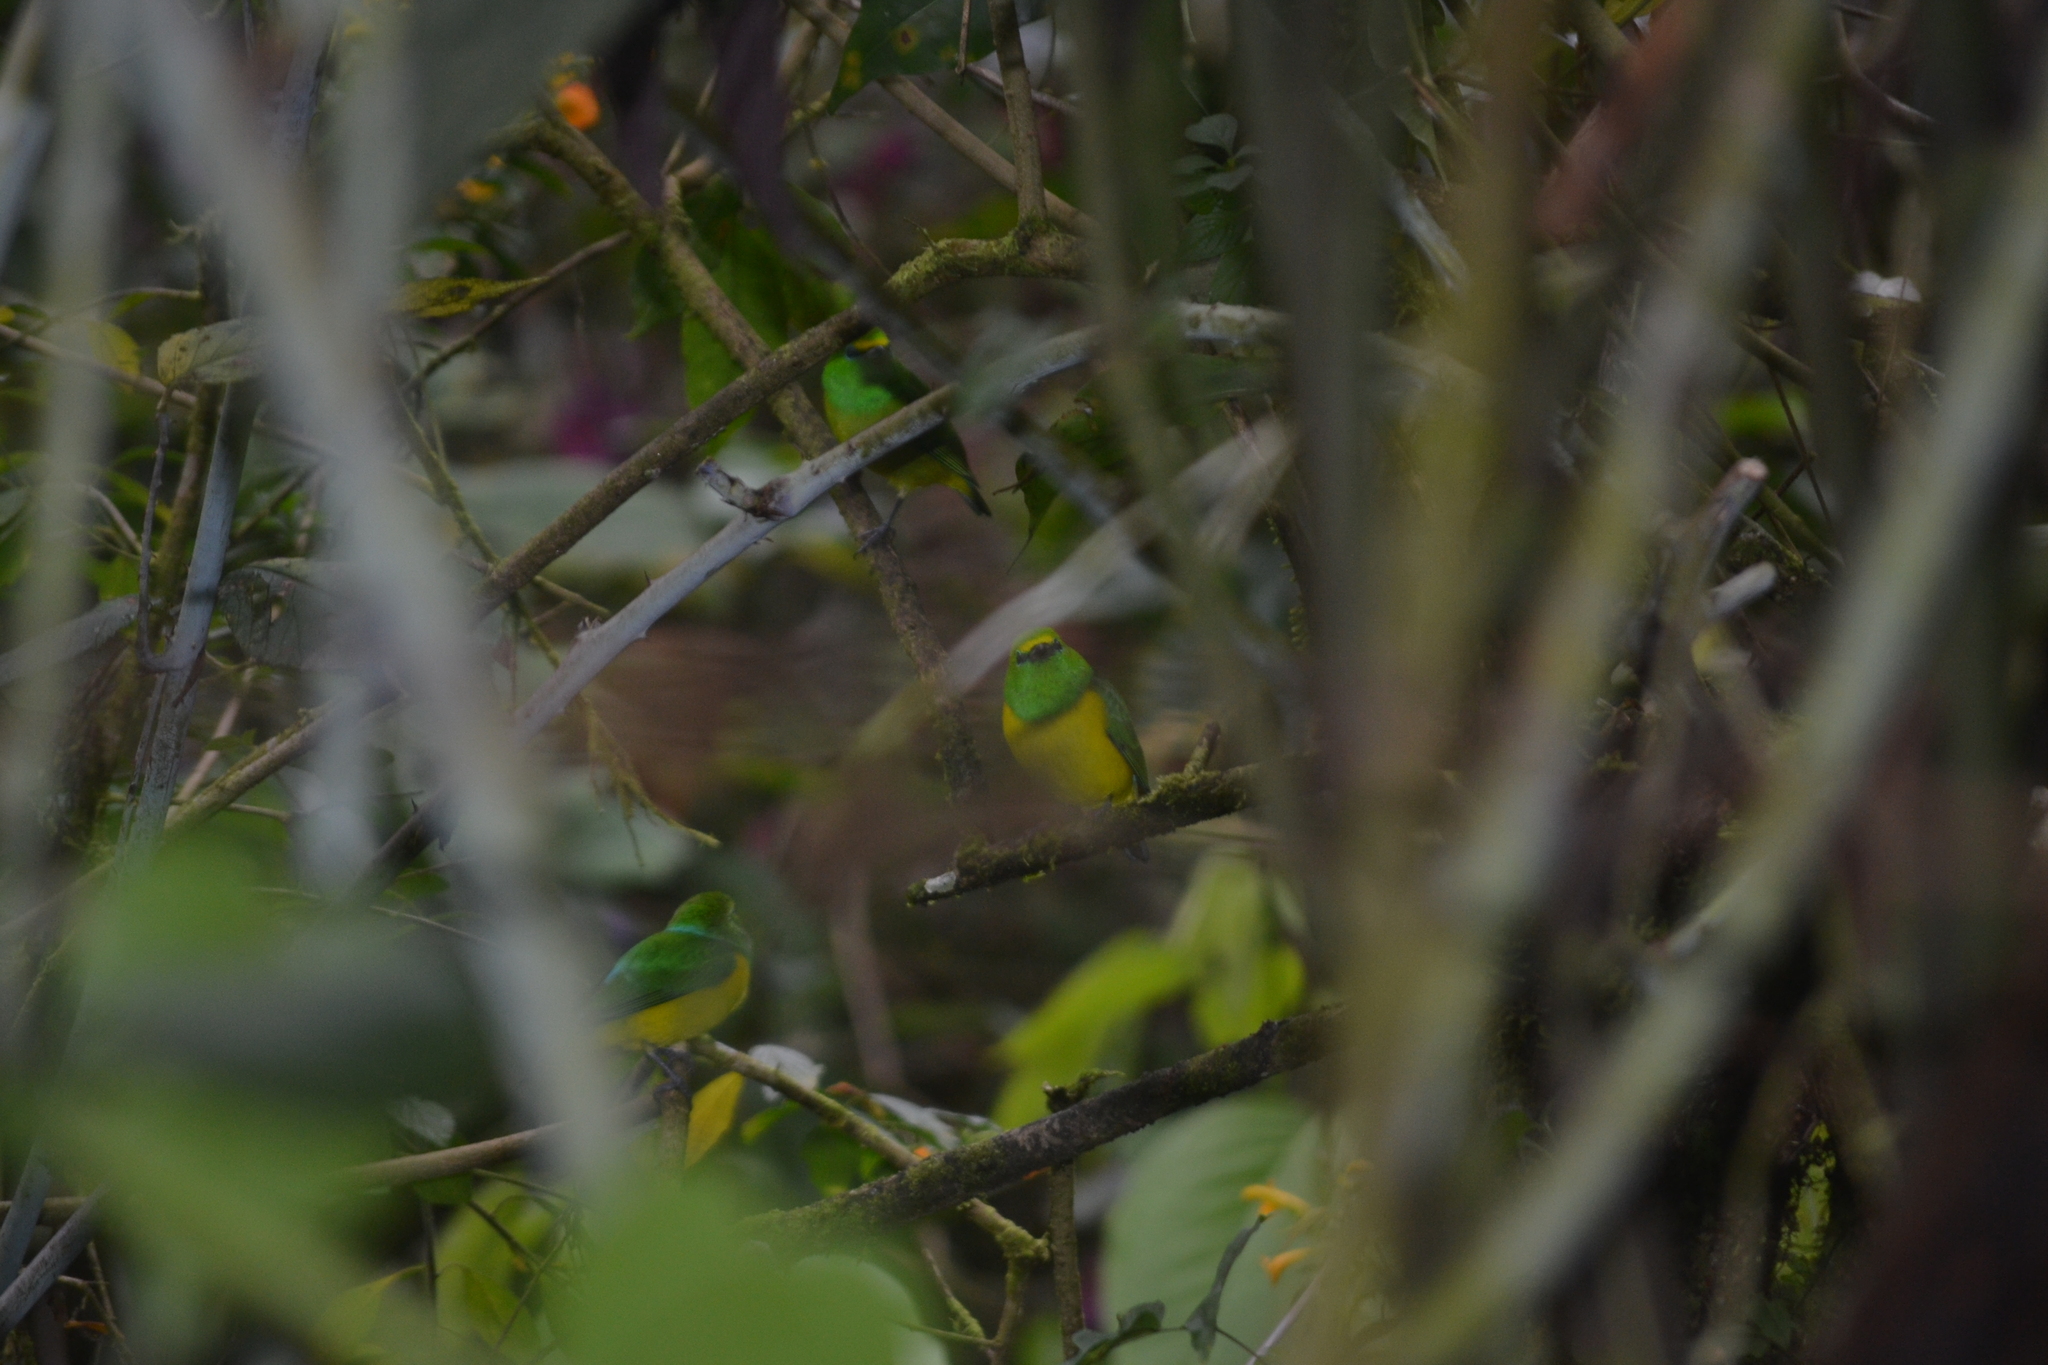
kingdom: Animalia
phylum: Chordata
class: Aves
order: Passeriformes
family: Fringillidae
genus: Chlorophonia
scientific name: Chlorophonia cyanea
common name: Blue-naped chlorophonia
